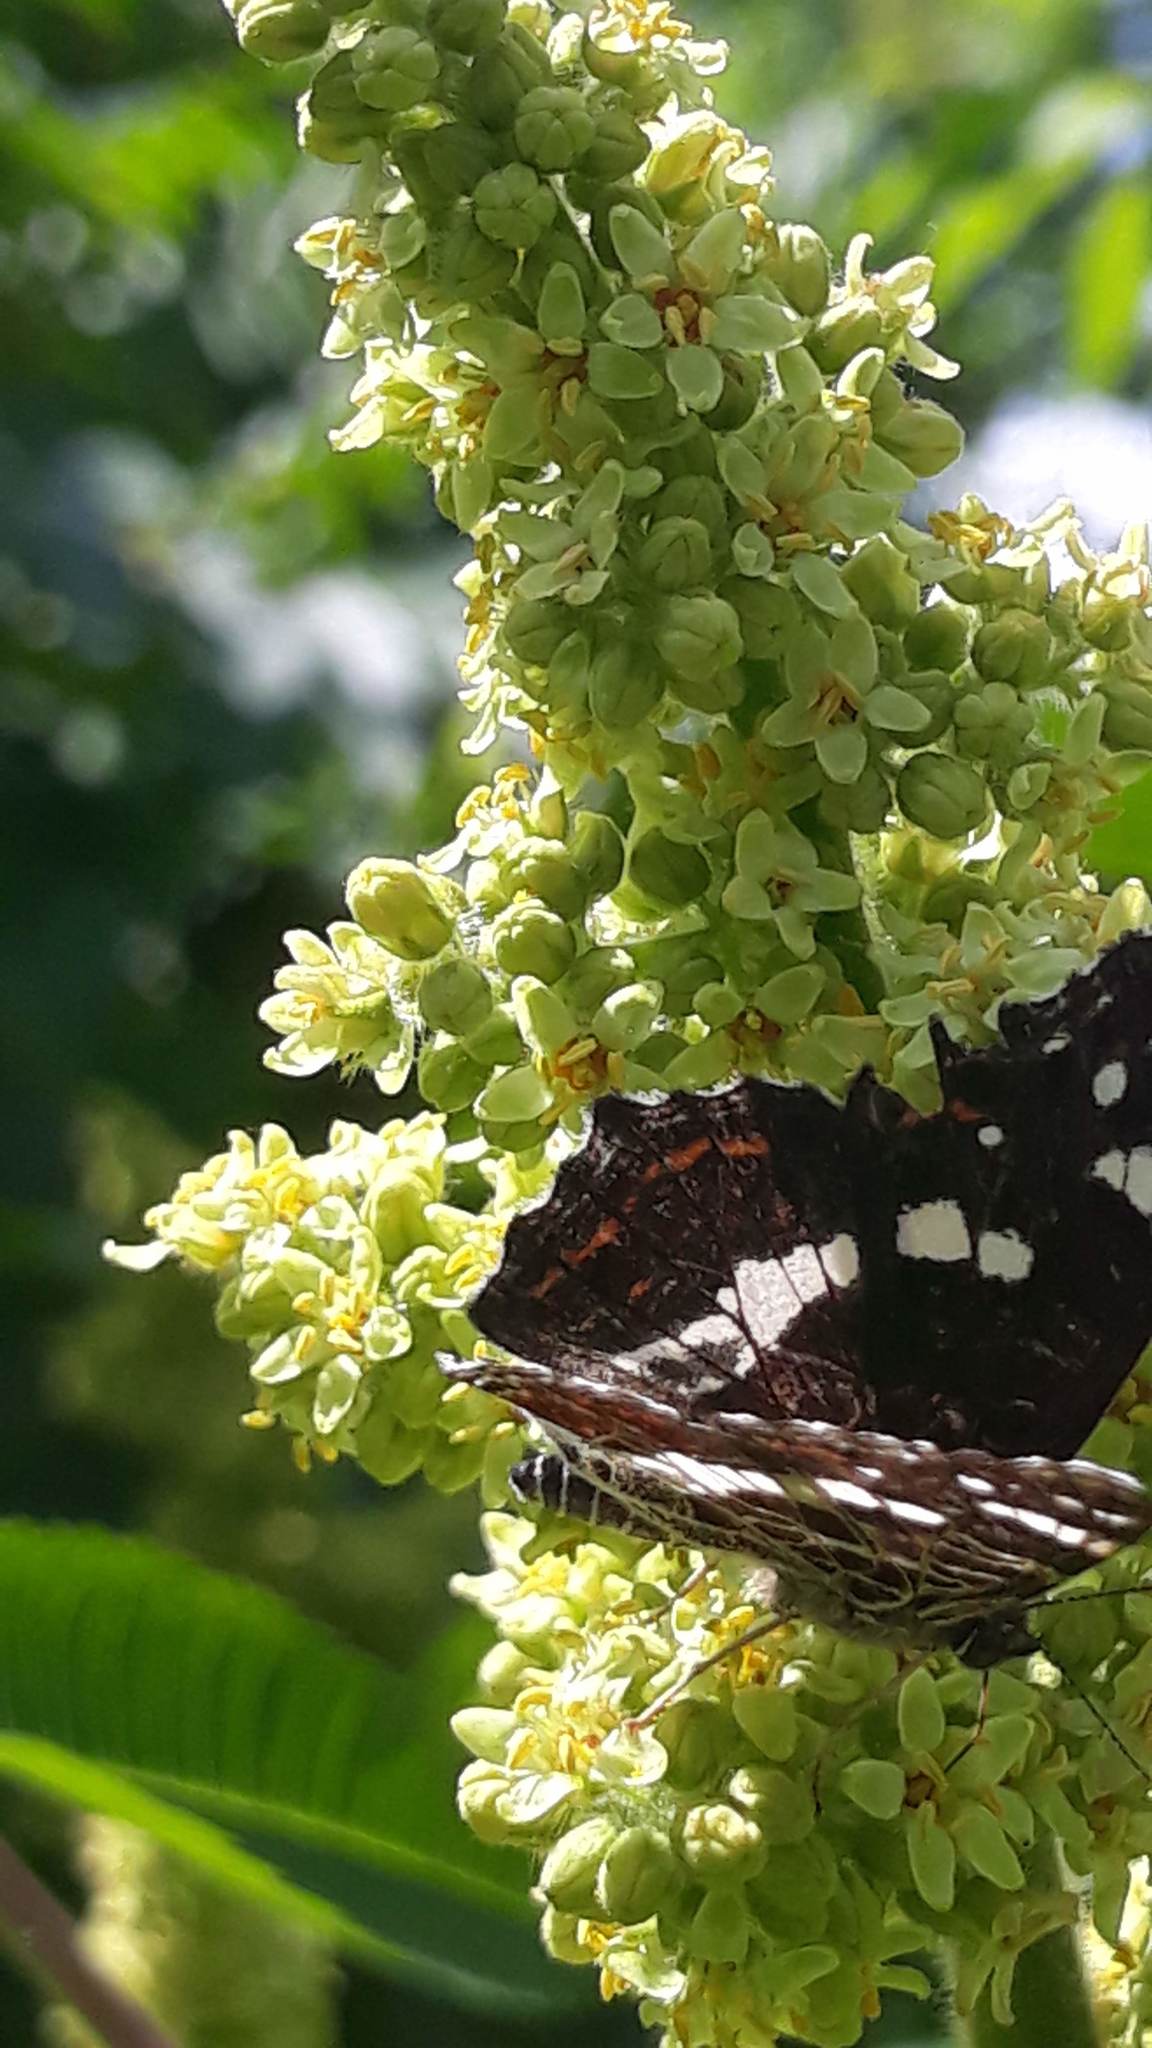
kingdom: Animalia
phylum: Arthropoda
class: Insecta
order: Lepidoptera
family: Nymphalidae
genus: Araschnia
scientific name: Araschnia levana
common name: Map butterfly
